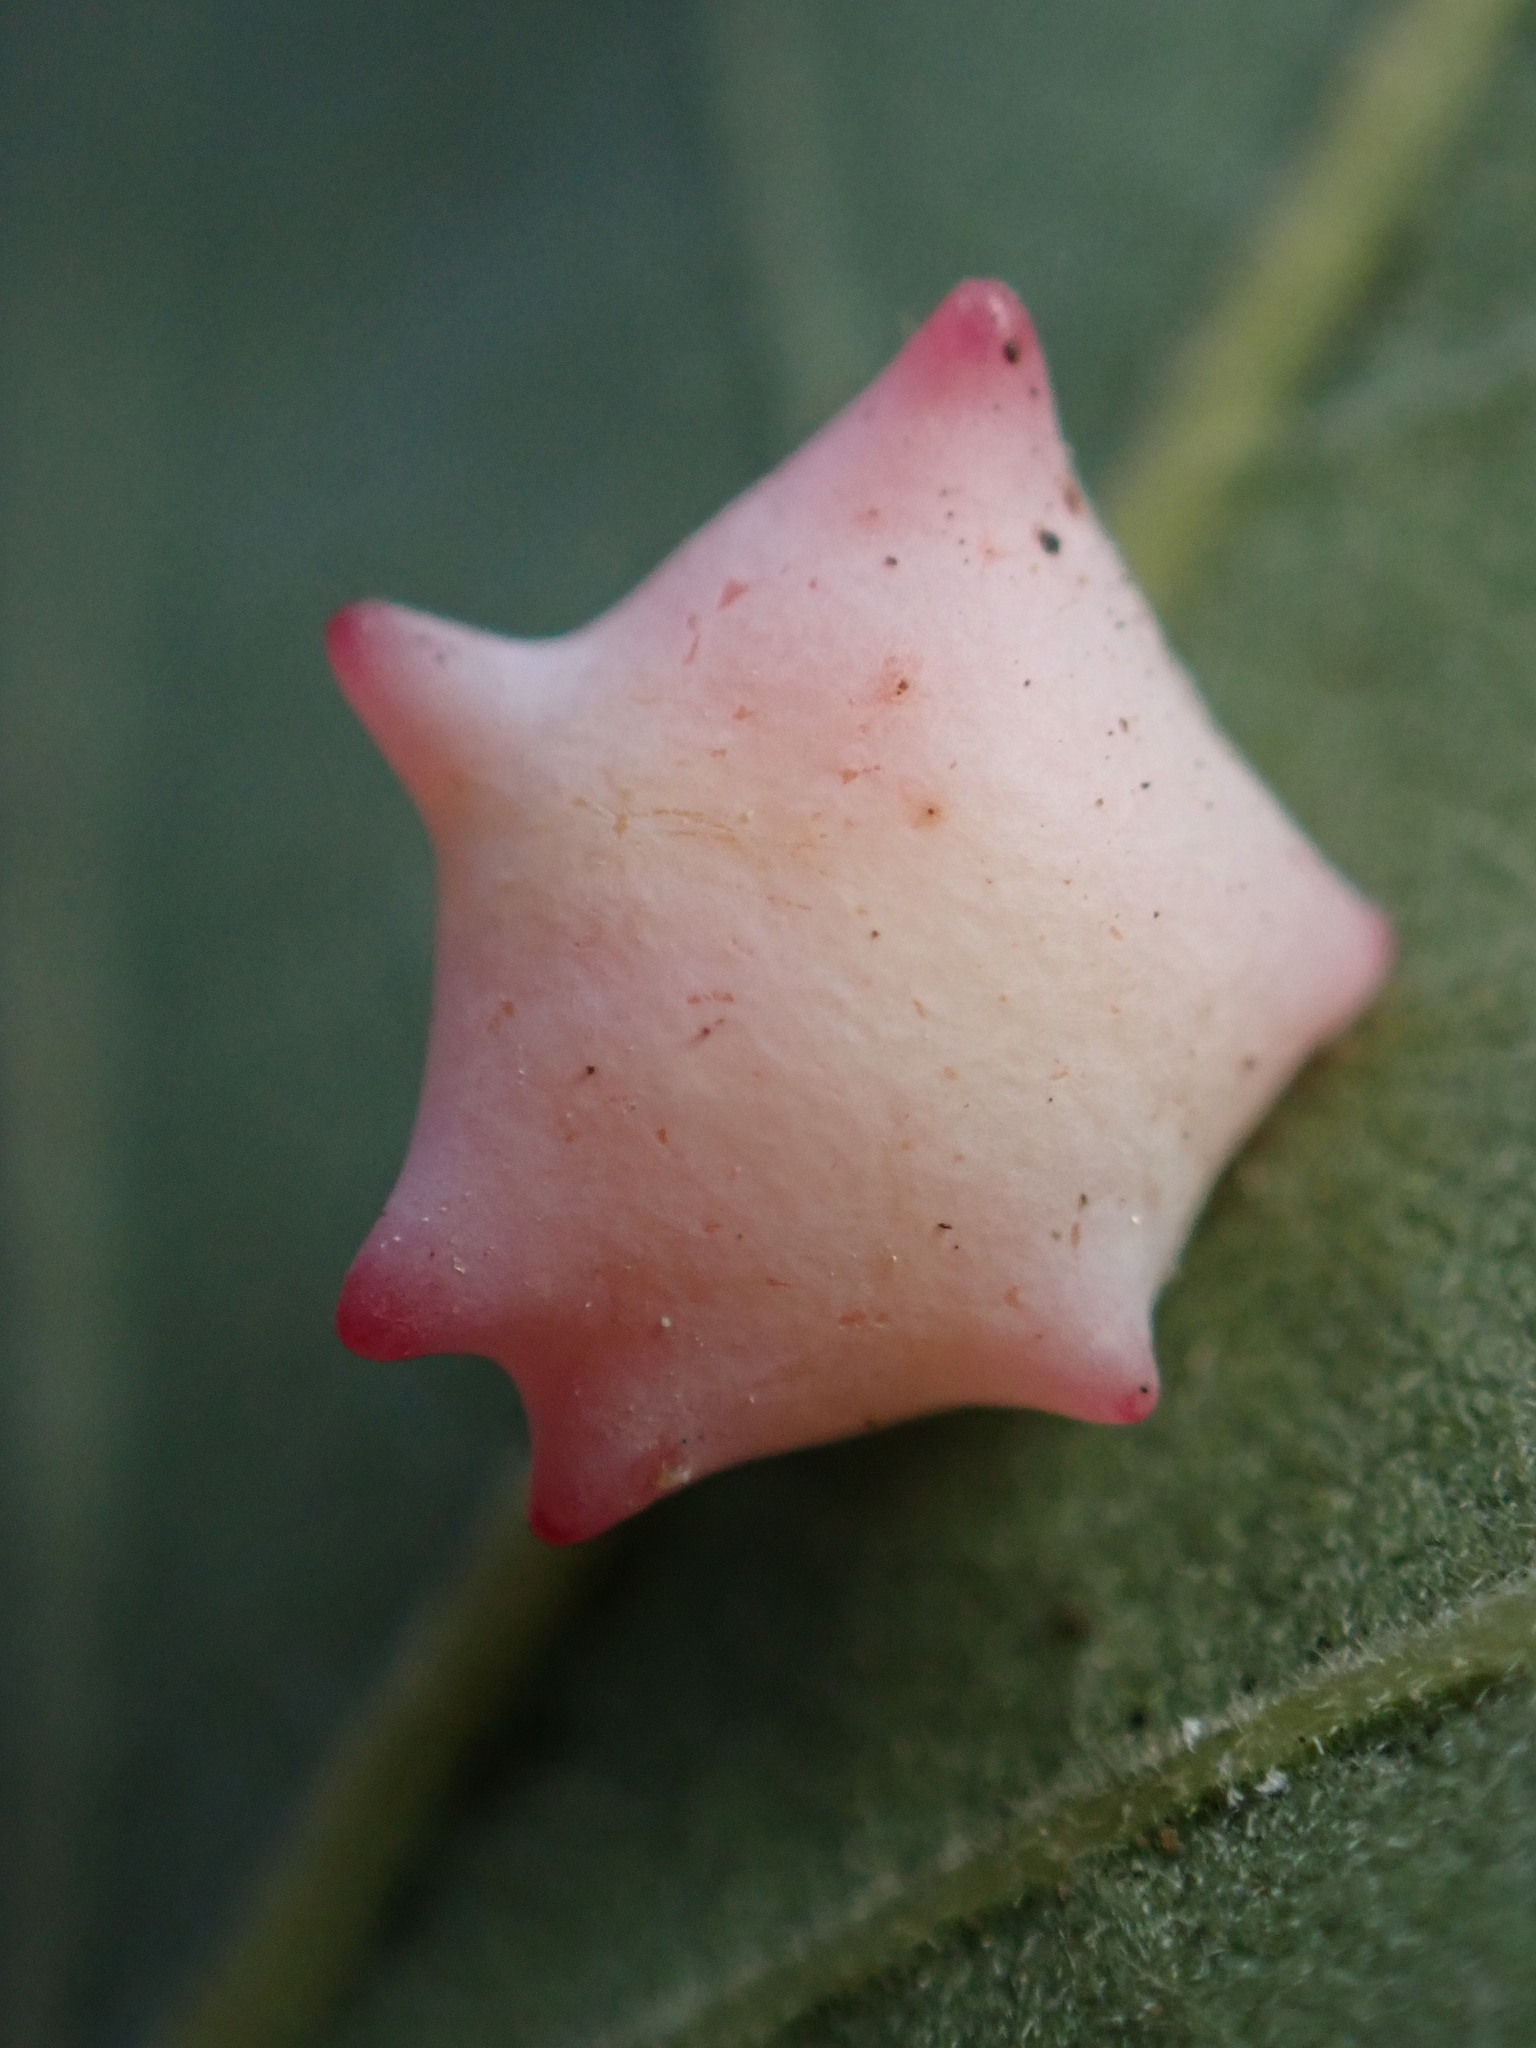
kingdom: Animalia
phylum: Arthropoda
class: Insecta
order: Hymenoptera
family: Cynipidae
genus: Cynips
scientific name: Cynips douglasi
